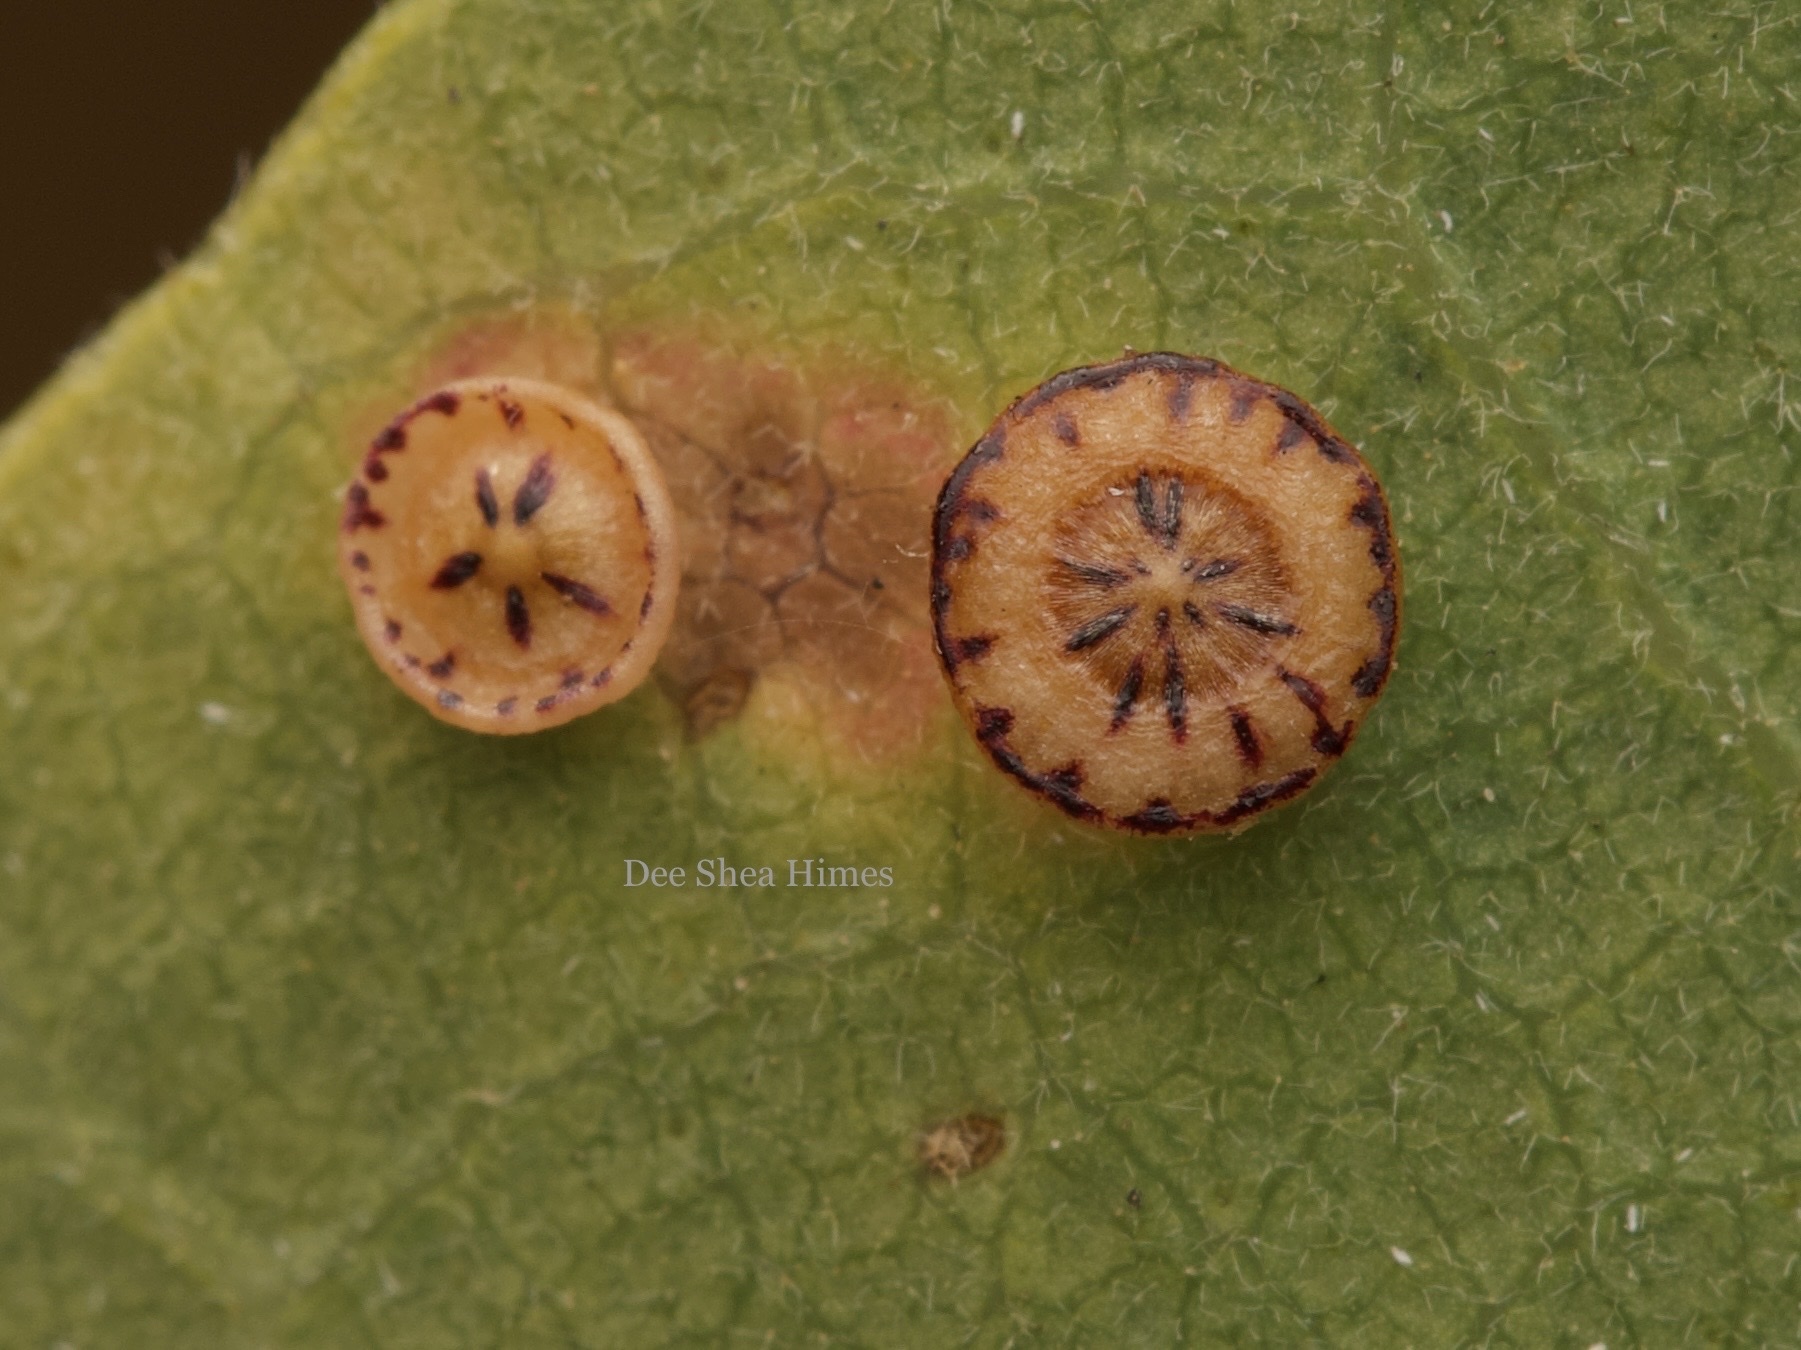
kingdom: Animalia
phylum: Arthropoda
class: Insecta
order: Hymenoptera
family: Cynipidae
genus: Andricus
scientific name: Andricus
